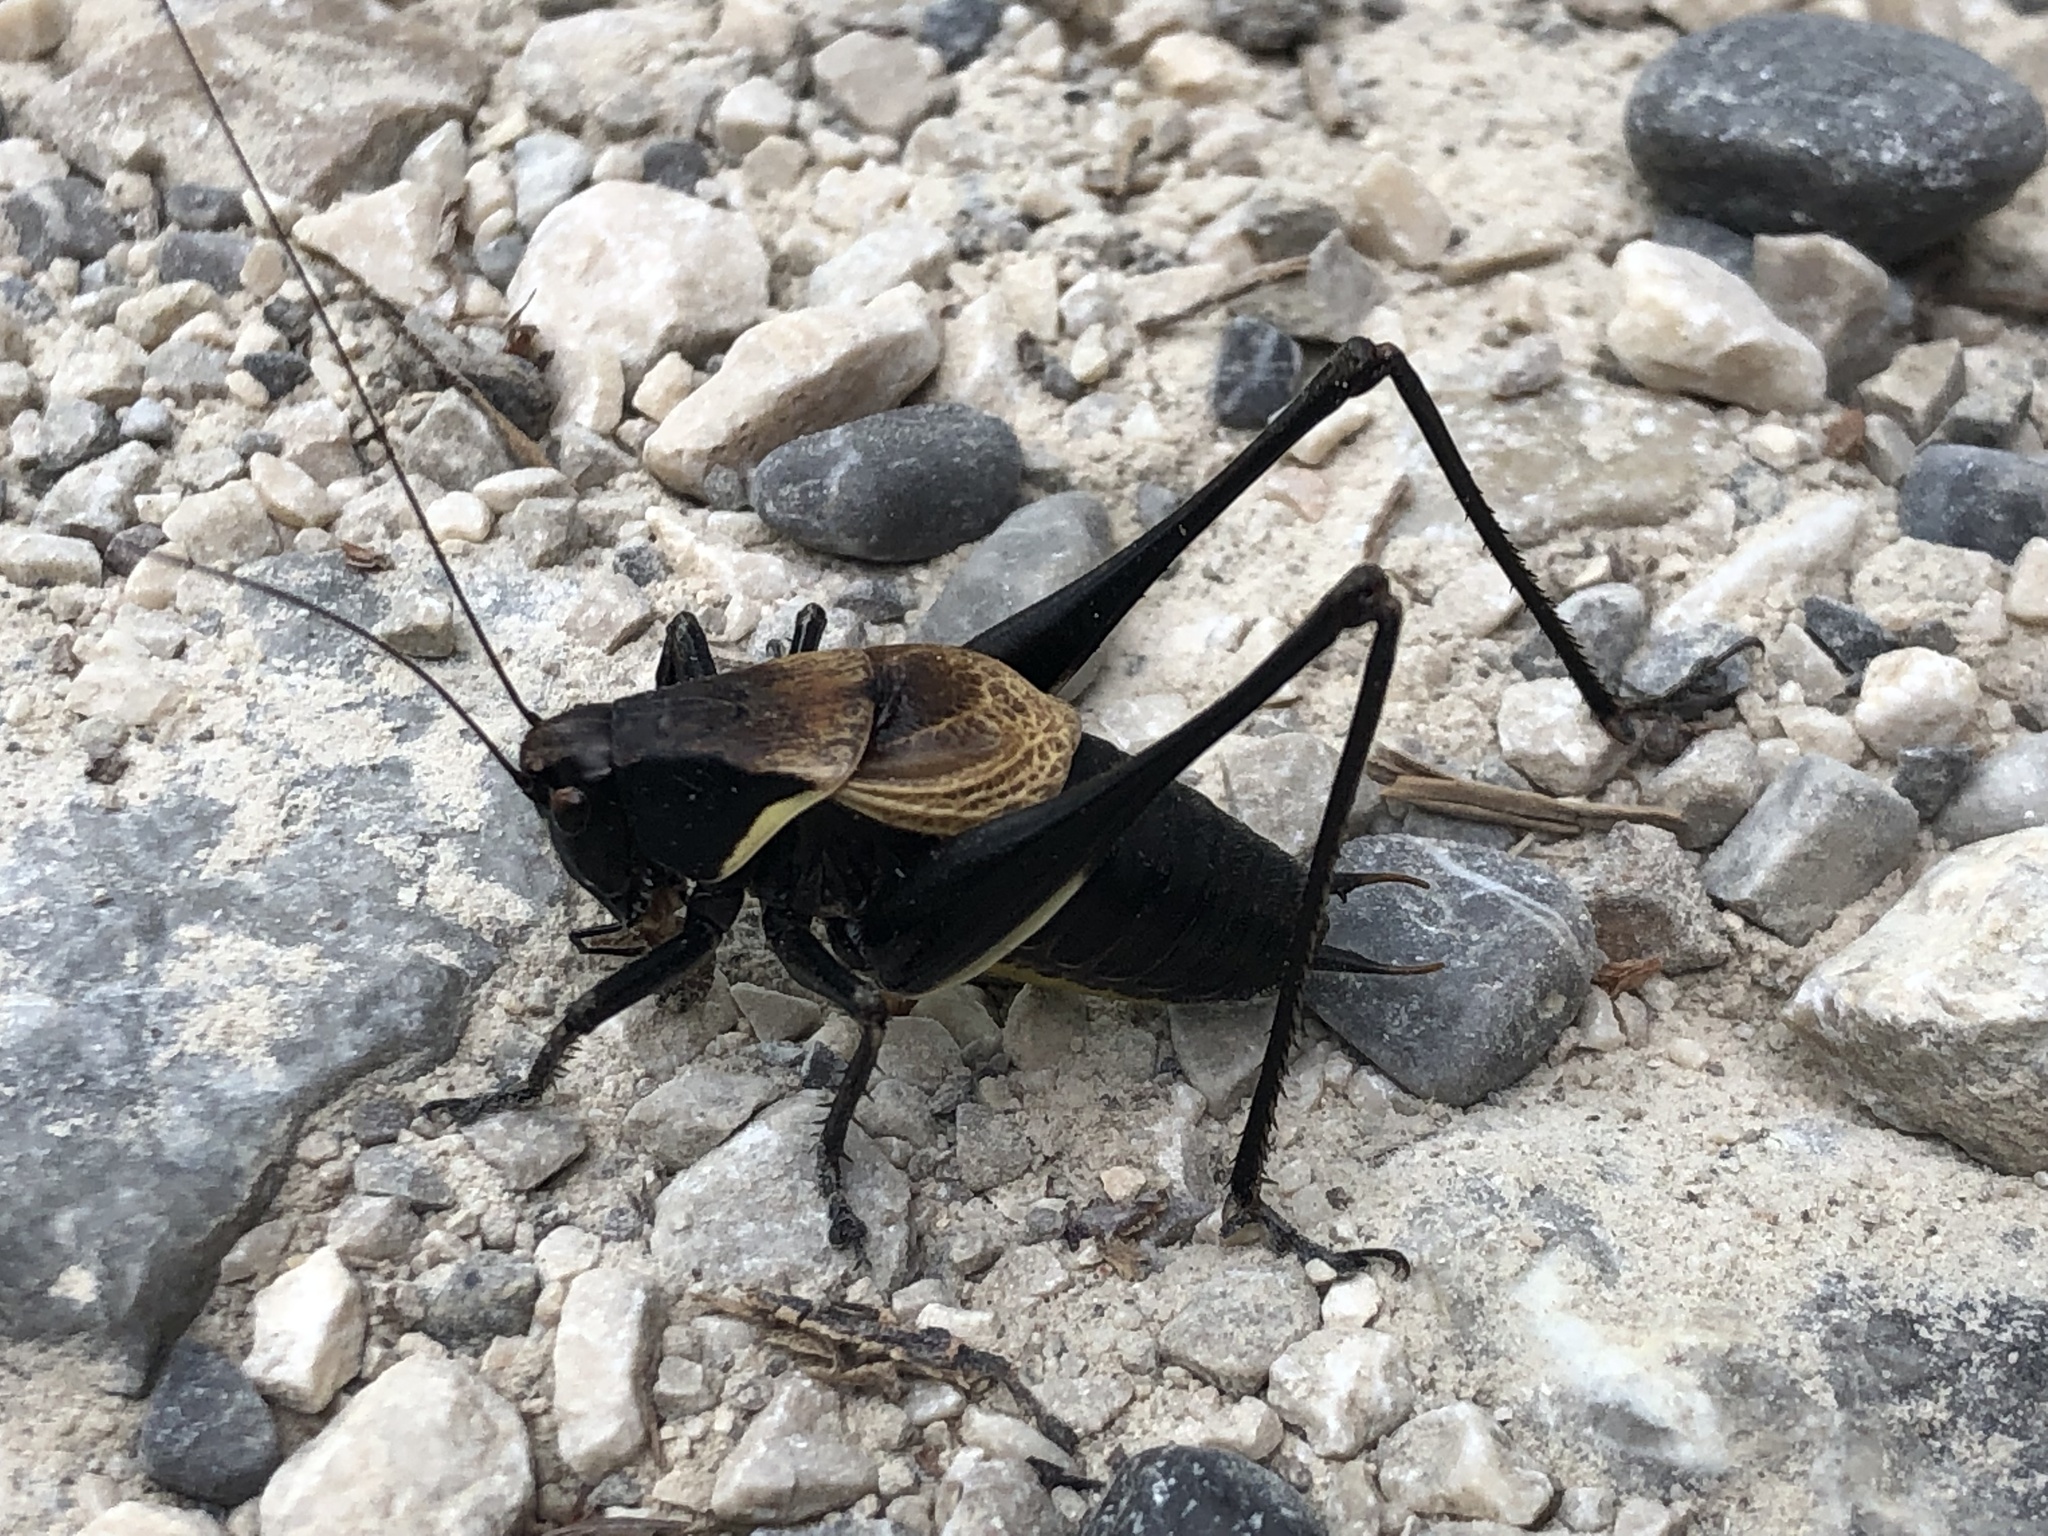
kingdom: Animalia
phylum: Arthropoda
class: Insecta
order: Orthoptera
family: Tettigoniidae
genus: Pholidoptera
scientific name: Pholidoptera aptera
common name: Alpine dark bush-cricket
